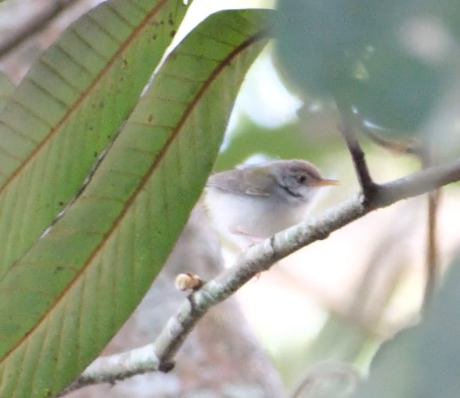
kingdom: Animalia
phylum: Chordata
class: Aves
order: Passeriformes
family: Cisticolidae
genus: Orthotomus
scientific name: Orthotomus sutorius
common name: Common tailorbird
